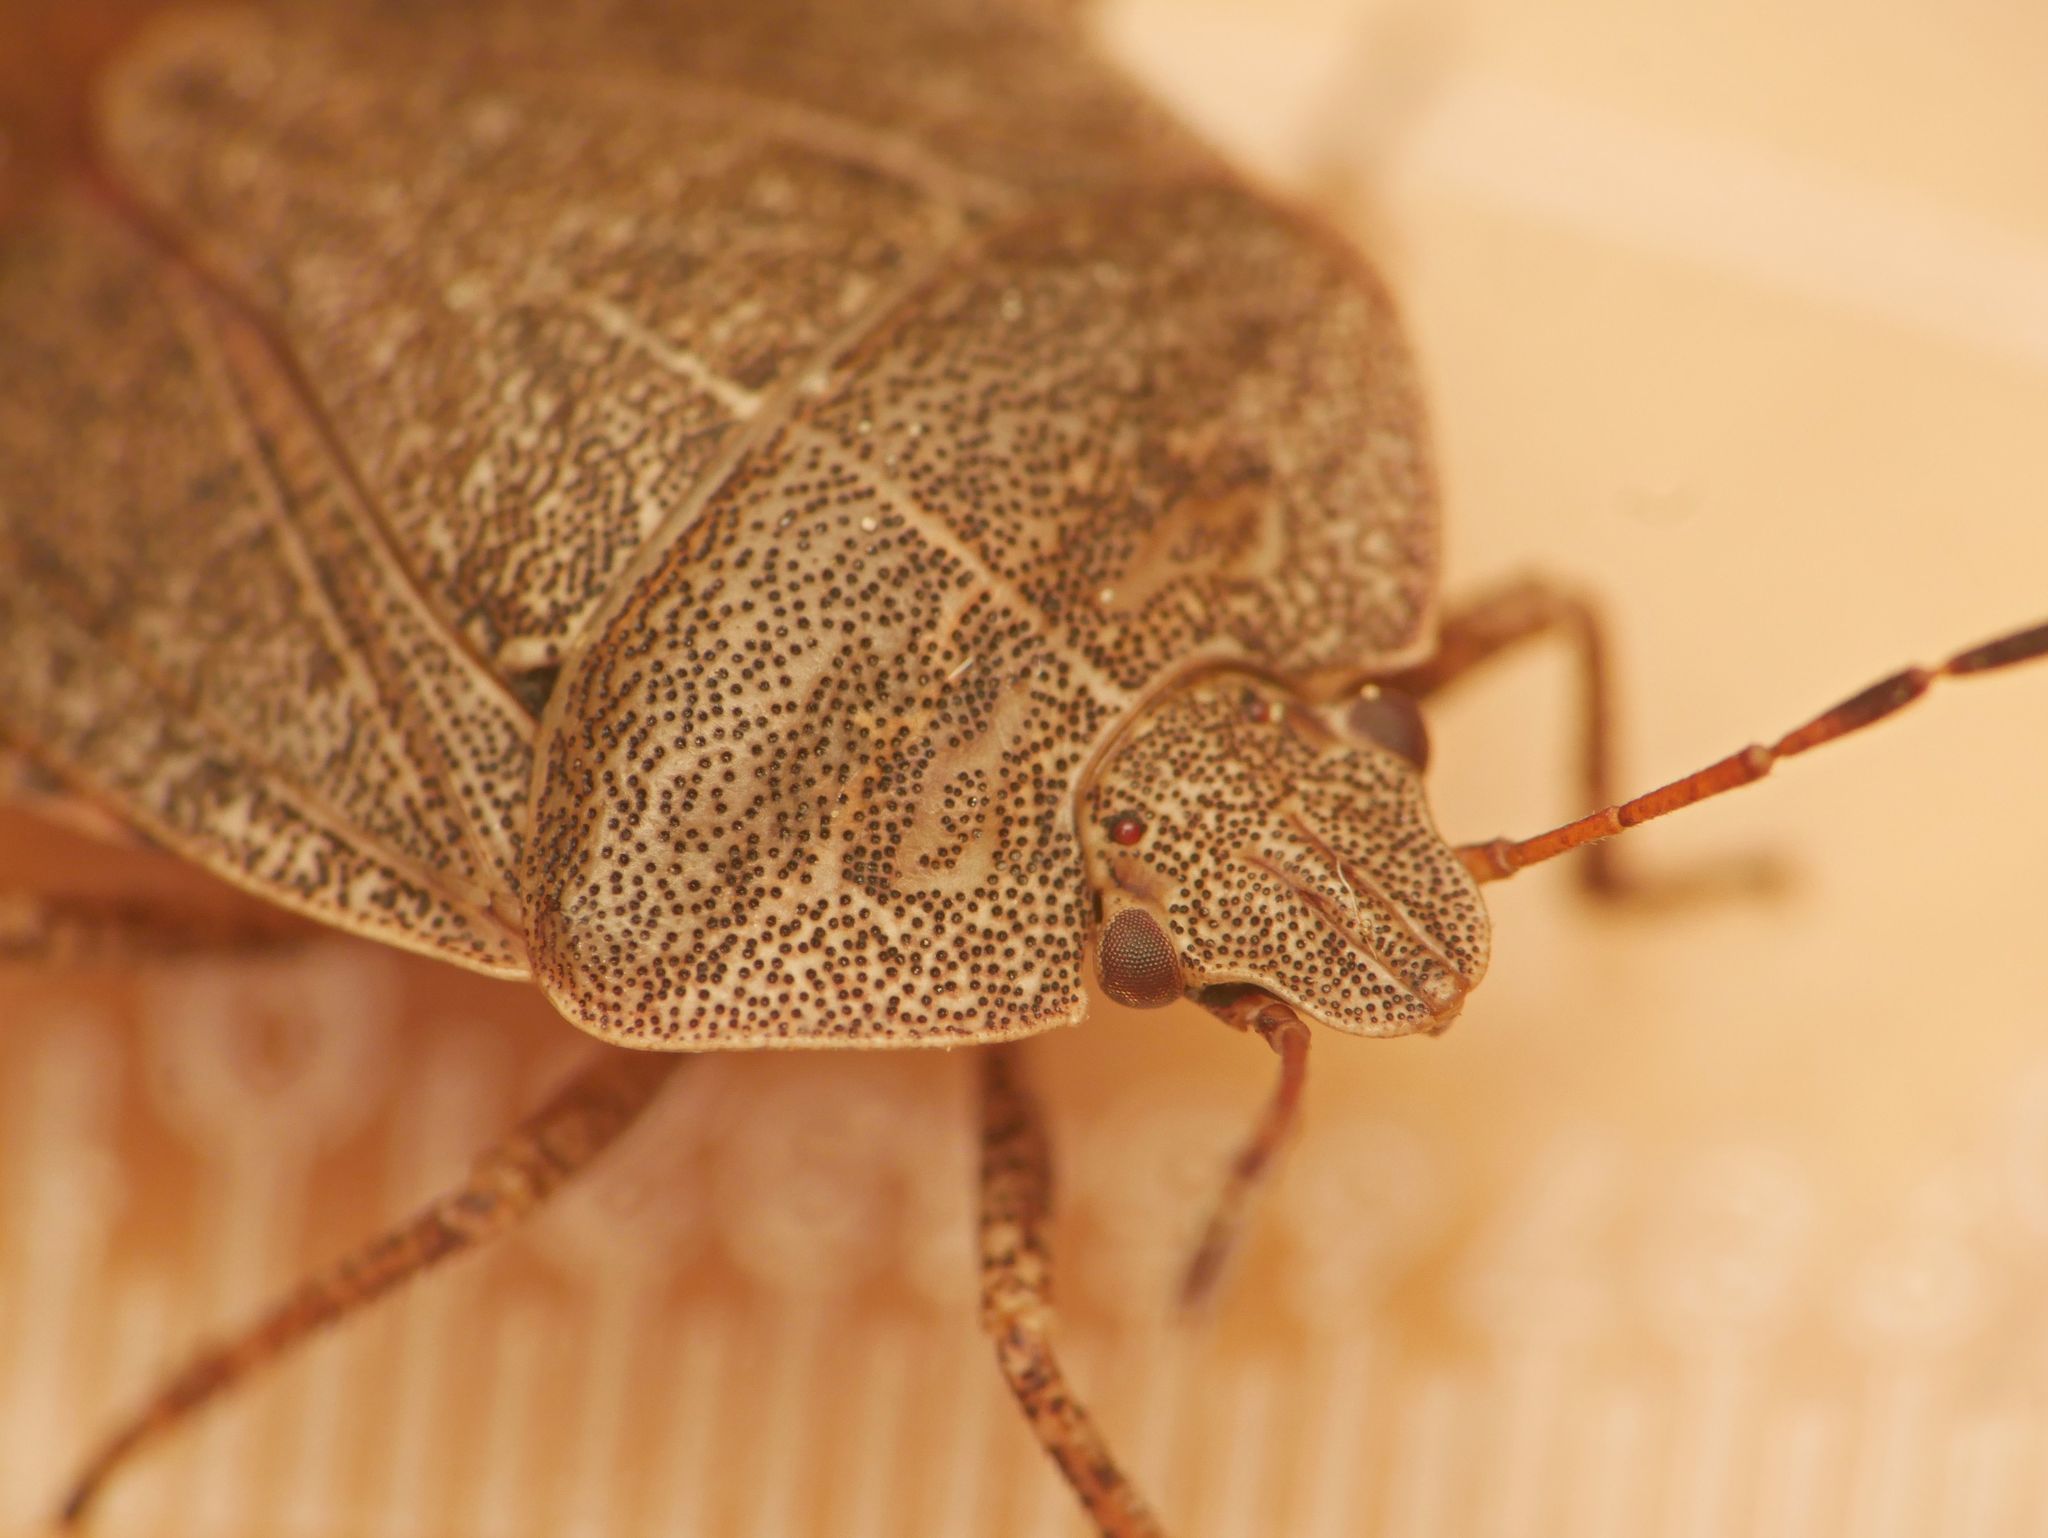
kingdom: Animalia
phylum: Arthropoda
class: Insecta
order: Hemiptera
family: Pentatomidae
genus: Menecles
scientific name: Menecles insertus
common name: Elf shoe stink bug
